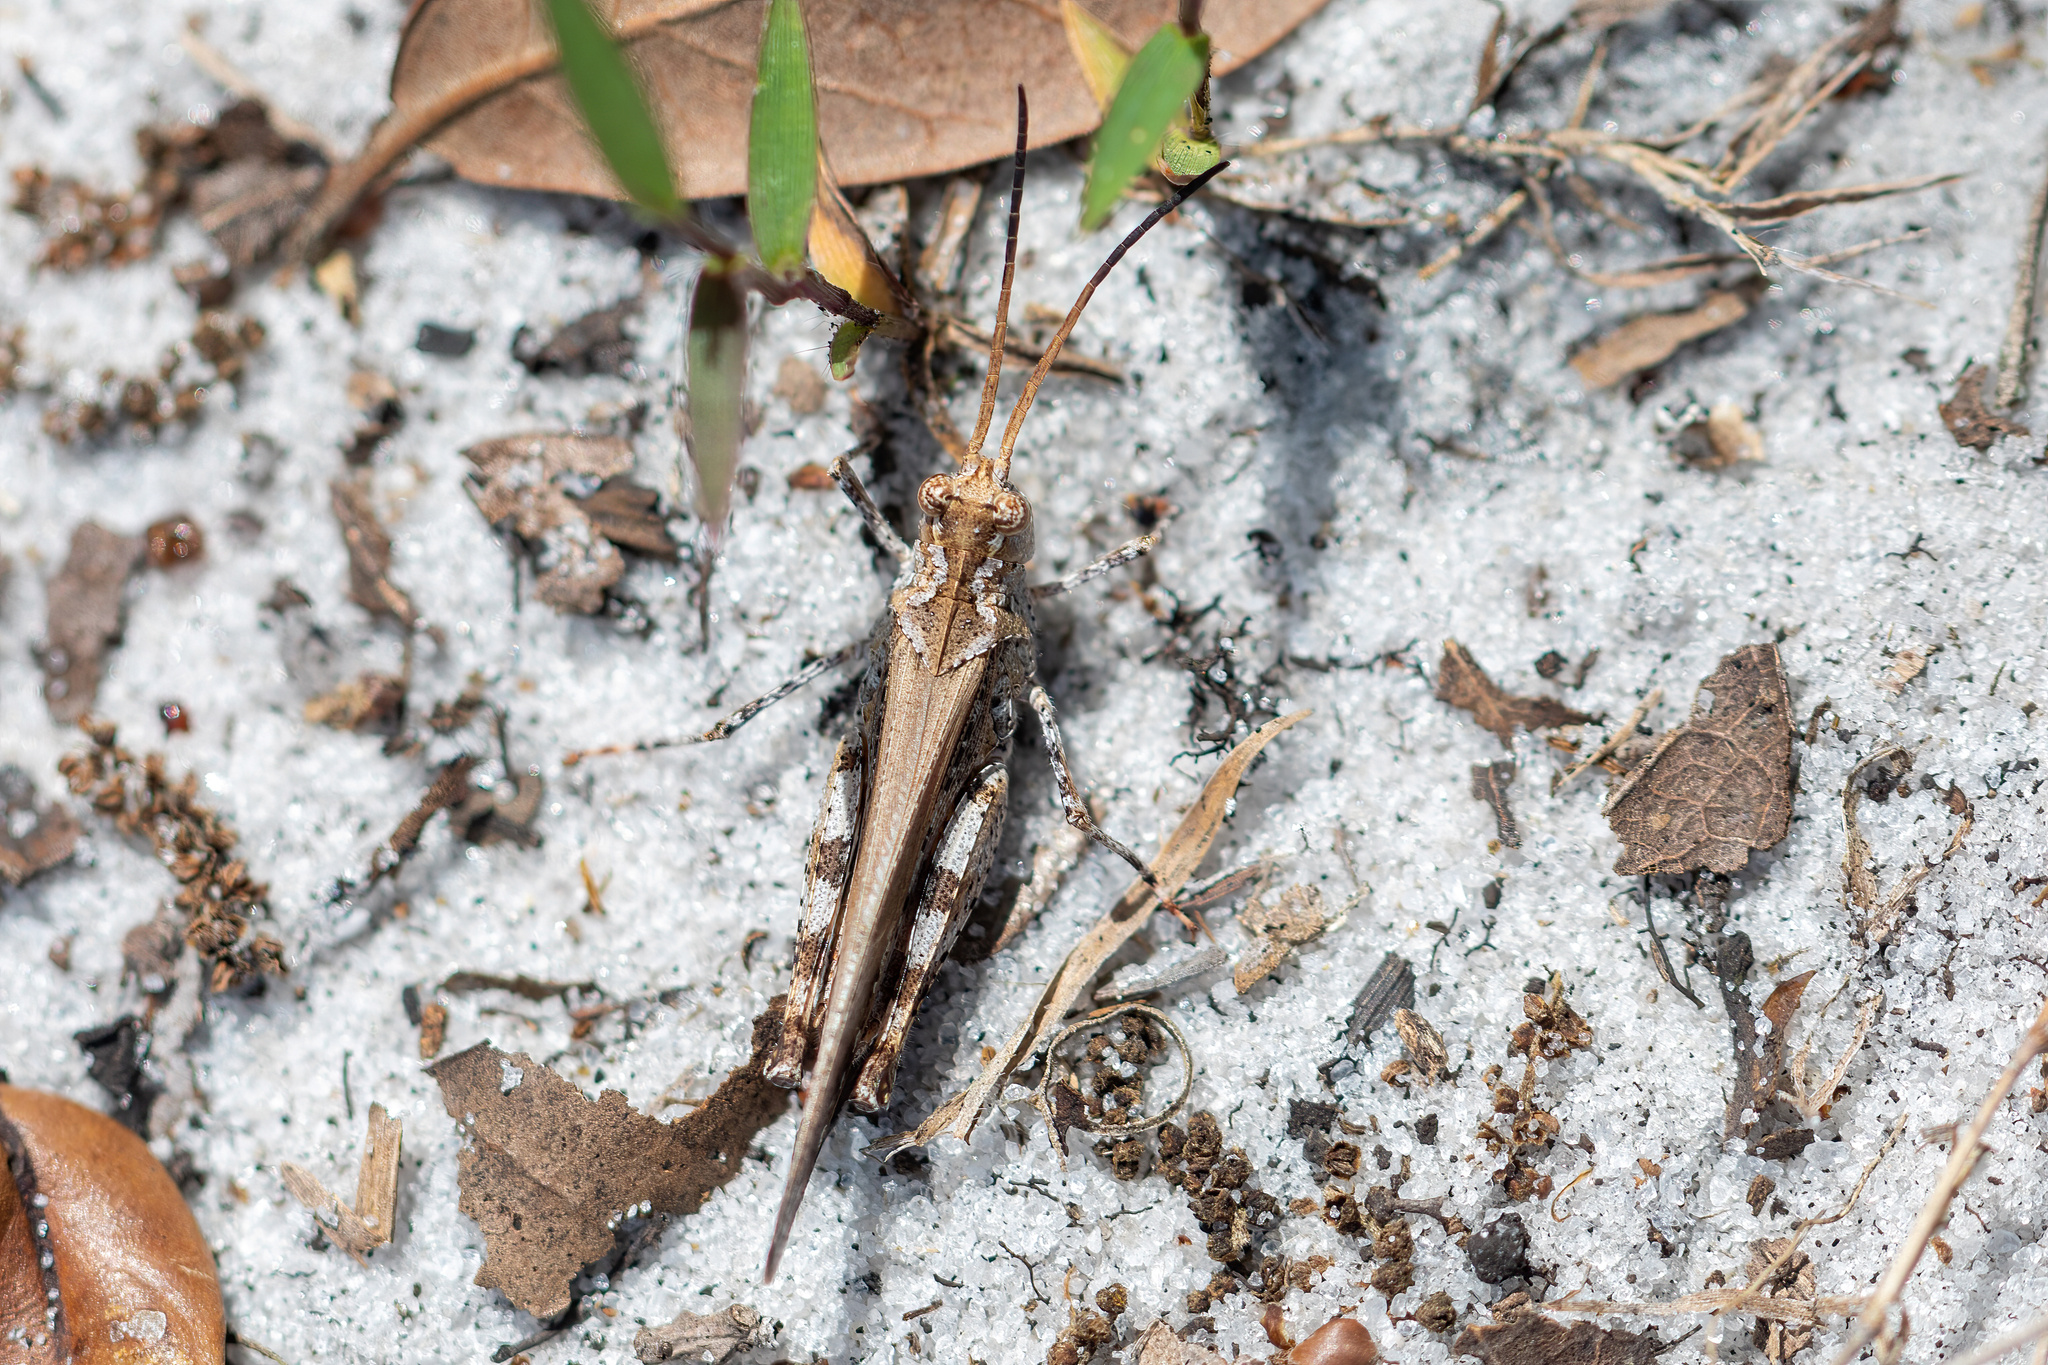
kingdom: Animalia
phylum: Arthropoda
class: Insecta
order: Orthoptera
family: Acrididae
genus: Psinidia
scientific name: Psinidia fenestralis
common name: Long-horned locust
